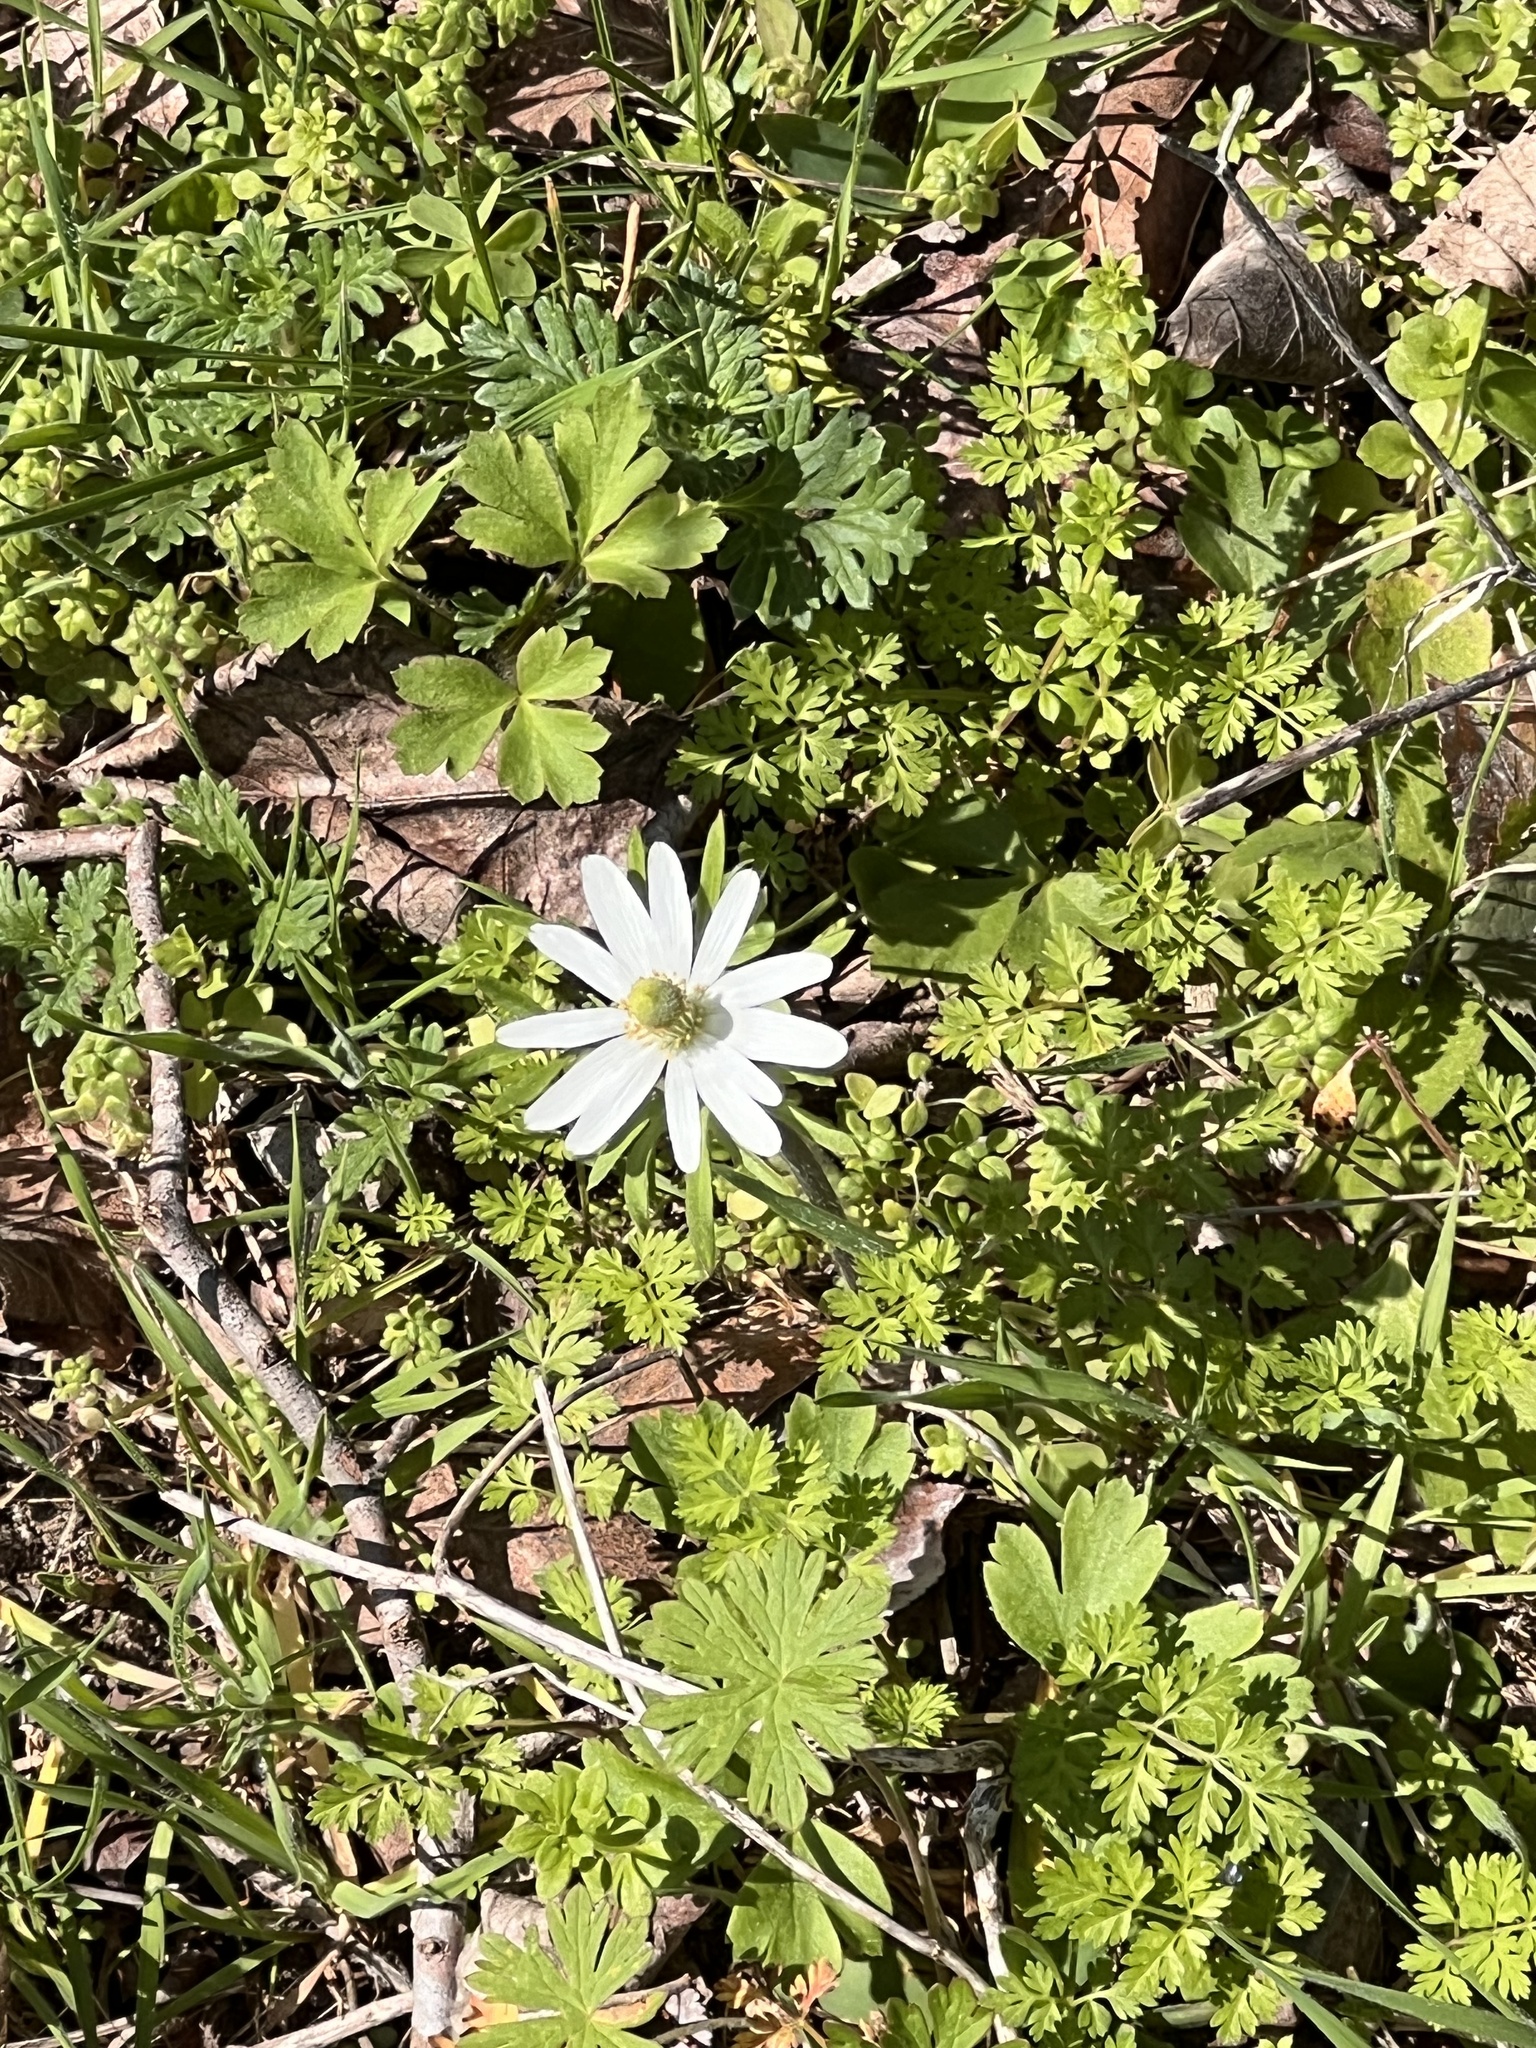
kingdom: Plantae
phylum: Tracheophyta
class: Magnoliopsida
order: Ranunculales
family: Ranunculaceae
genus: Anemone
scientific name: Anemone berlandieri
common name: Ten-petal anemone
